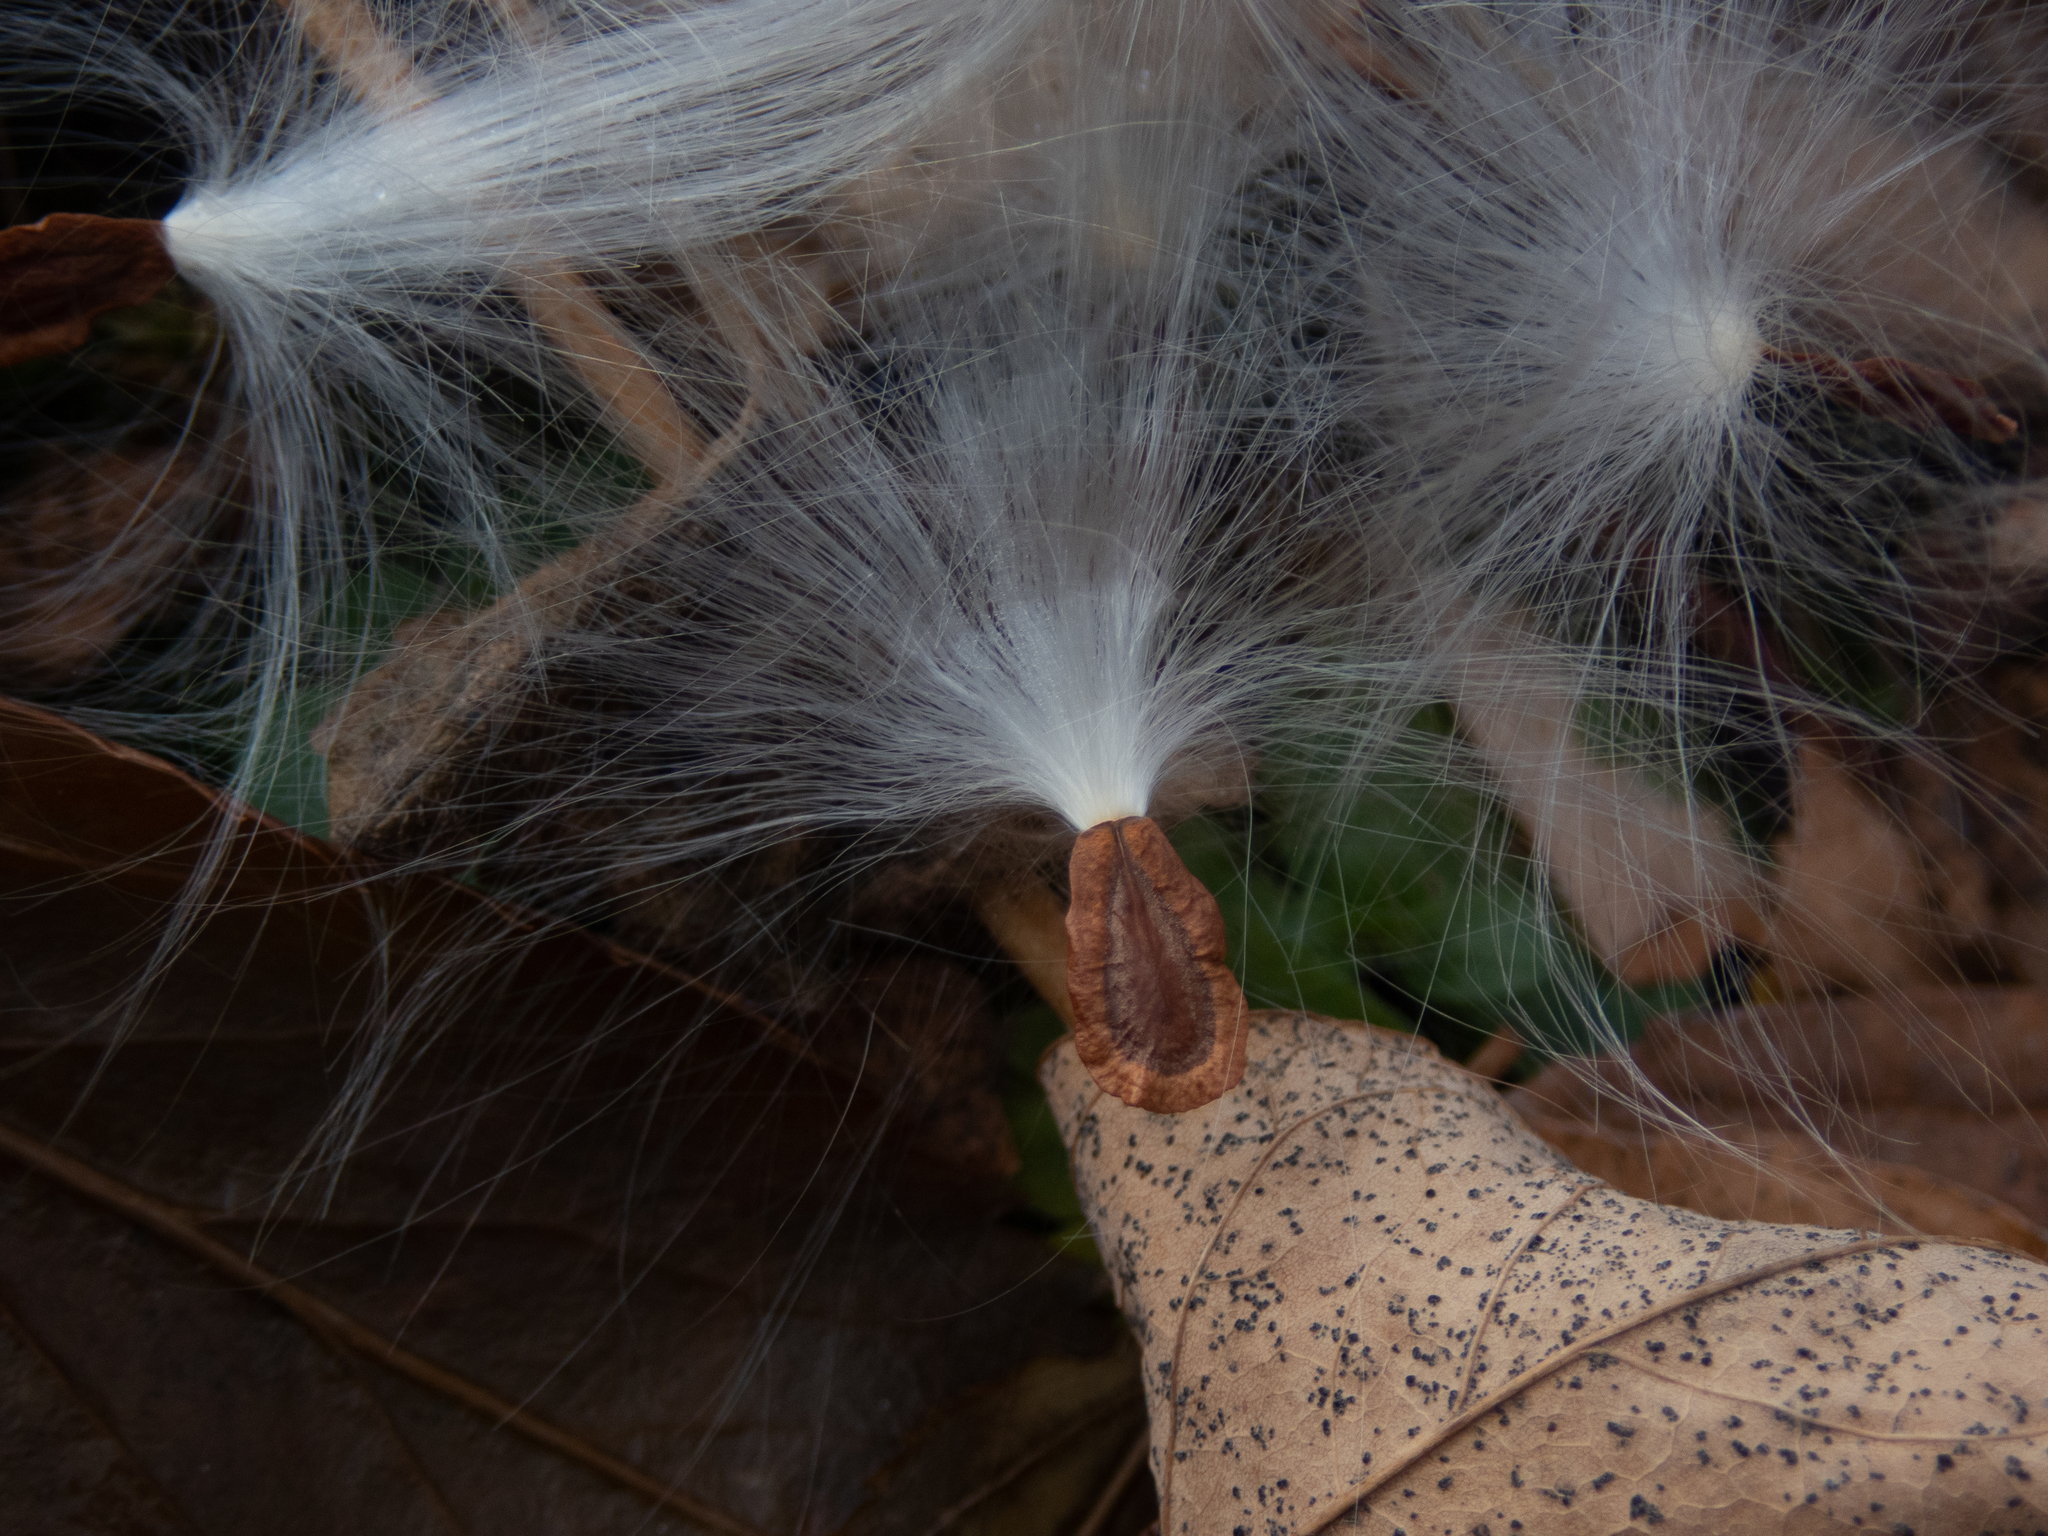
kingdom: Plantae
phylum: Tracheophyta
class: Magnoliopsida
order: Gentianales
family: Apocynaceae
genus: Asclepias
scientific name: Asclepias syriaca
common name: Common milkweed
